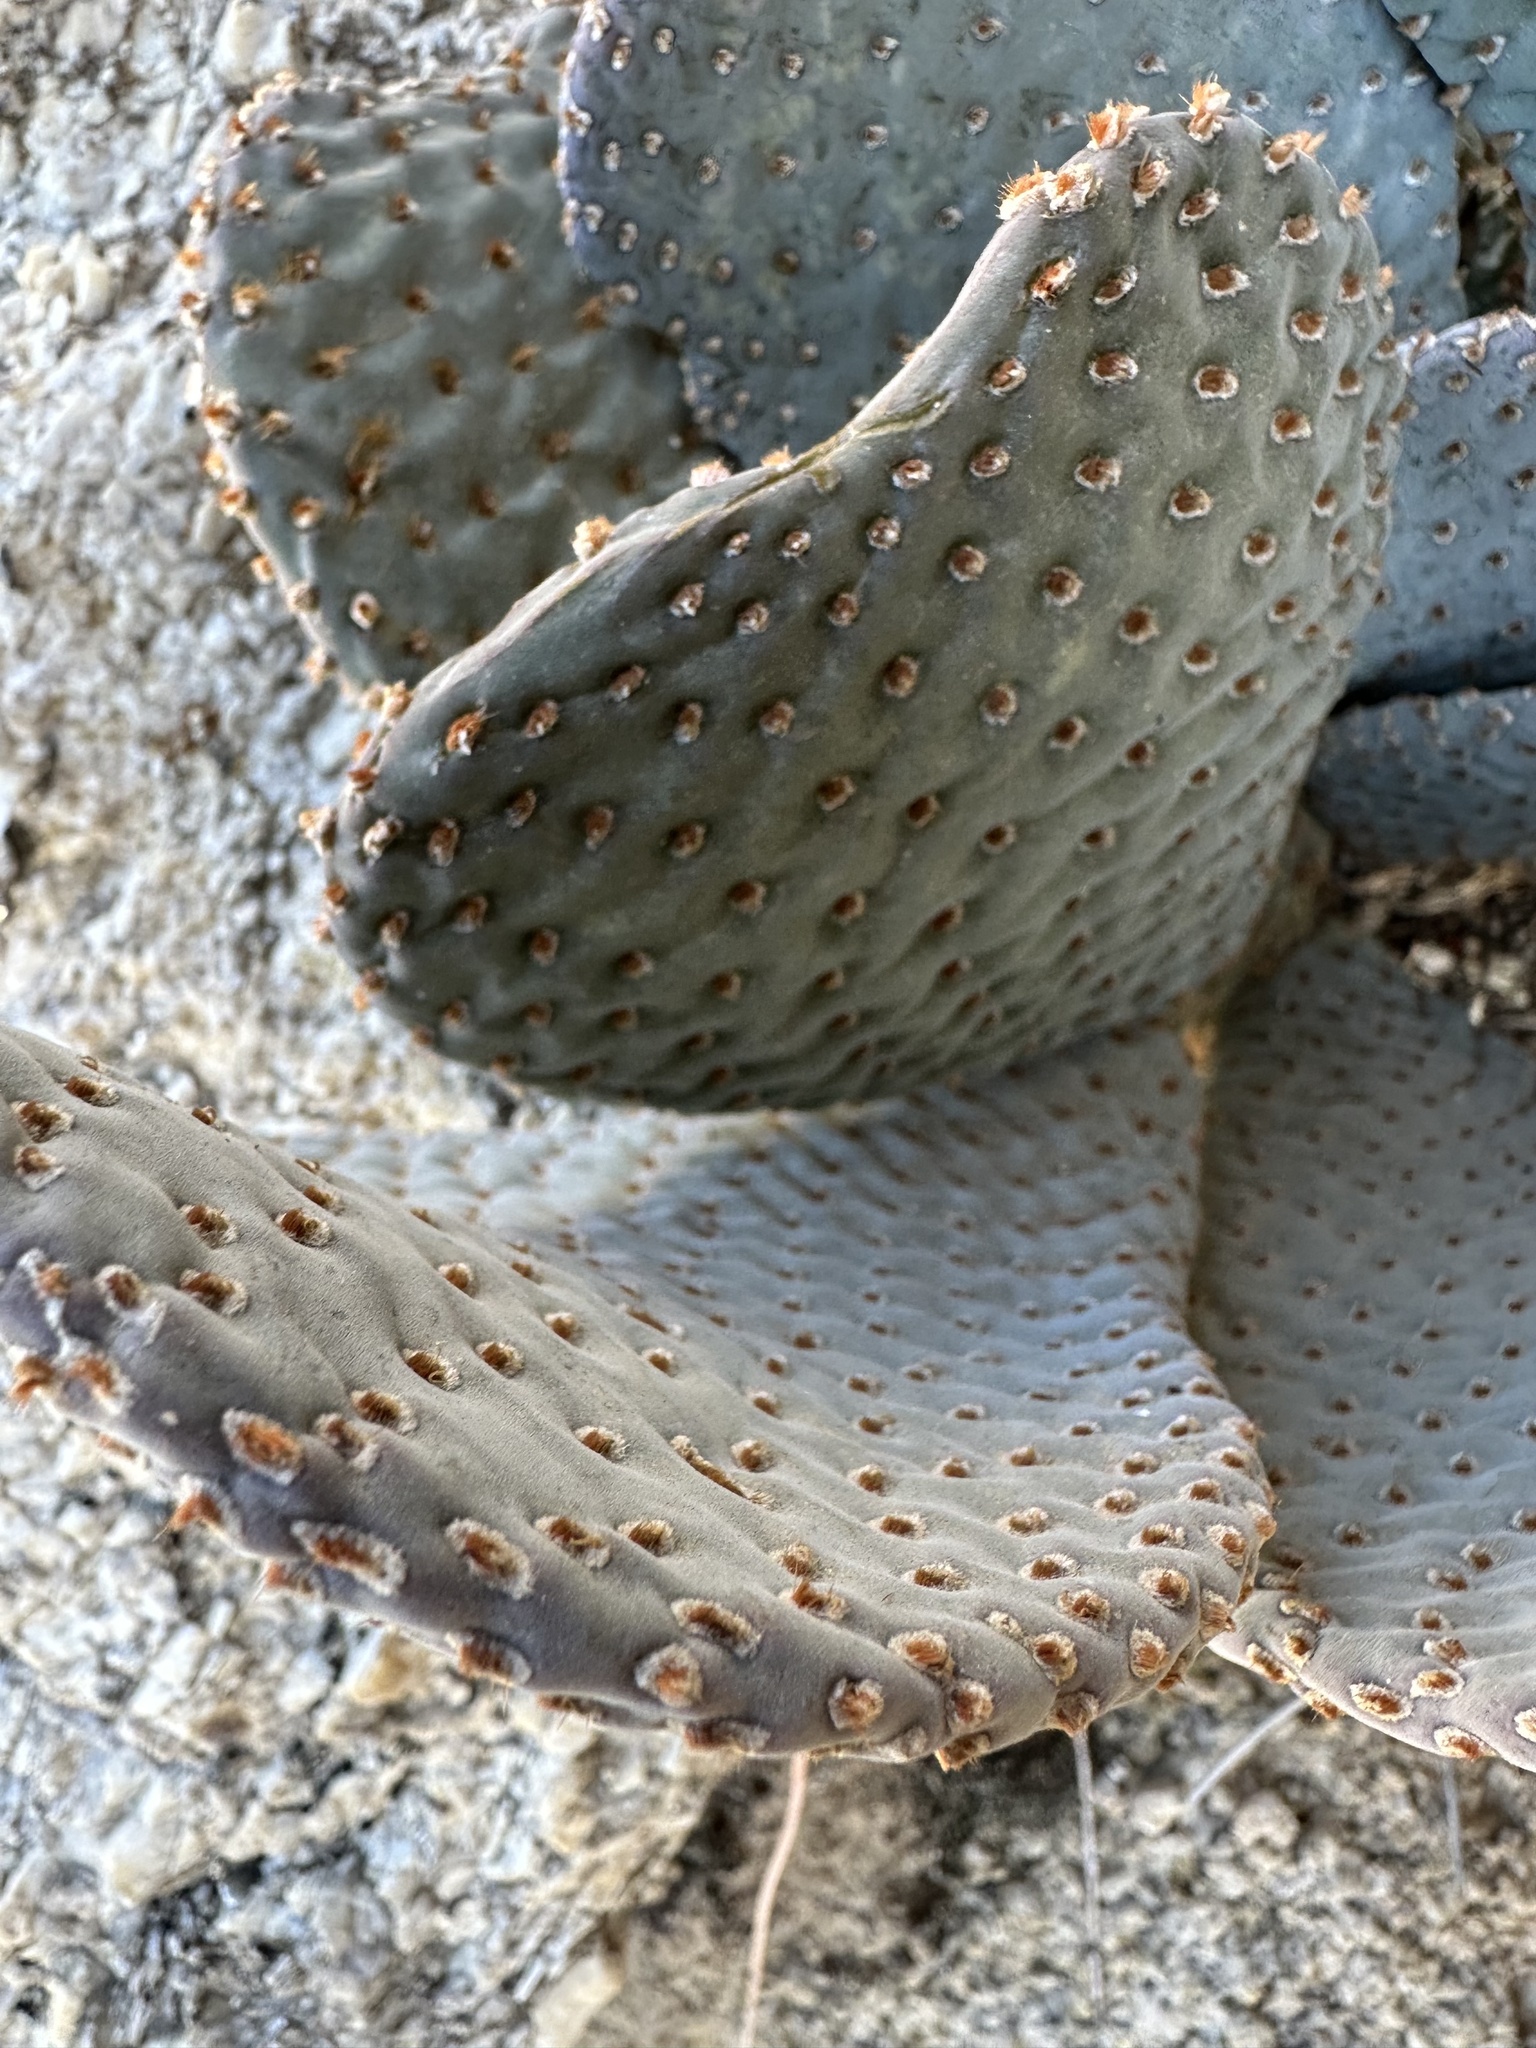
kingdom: Plantae
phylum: Tracheophyta
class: Magnoliopsida
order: Caryophyllales
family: Cactaceae
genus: Opuntia
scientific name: Opuntia basilaris
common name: Beavertail prickly-pear
